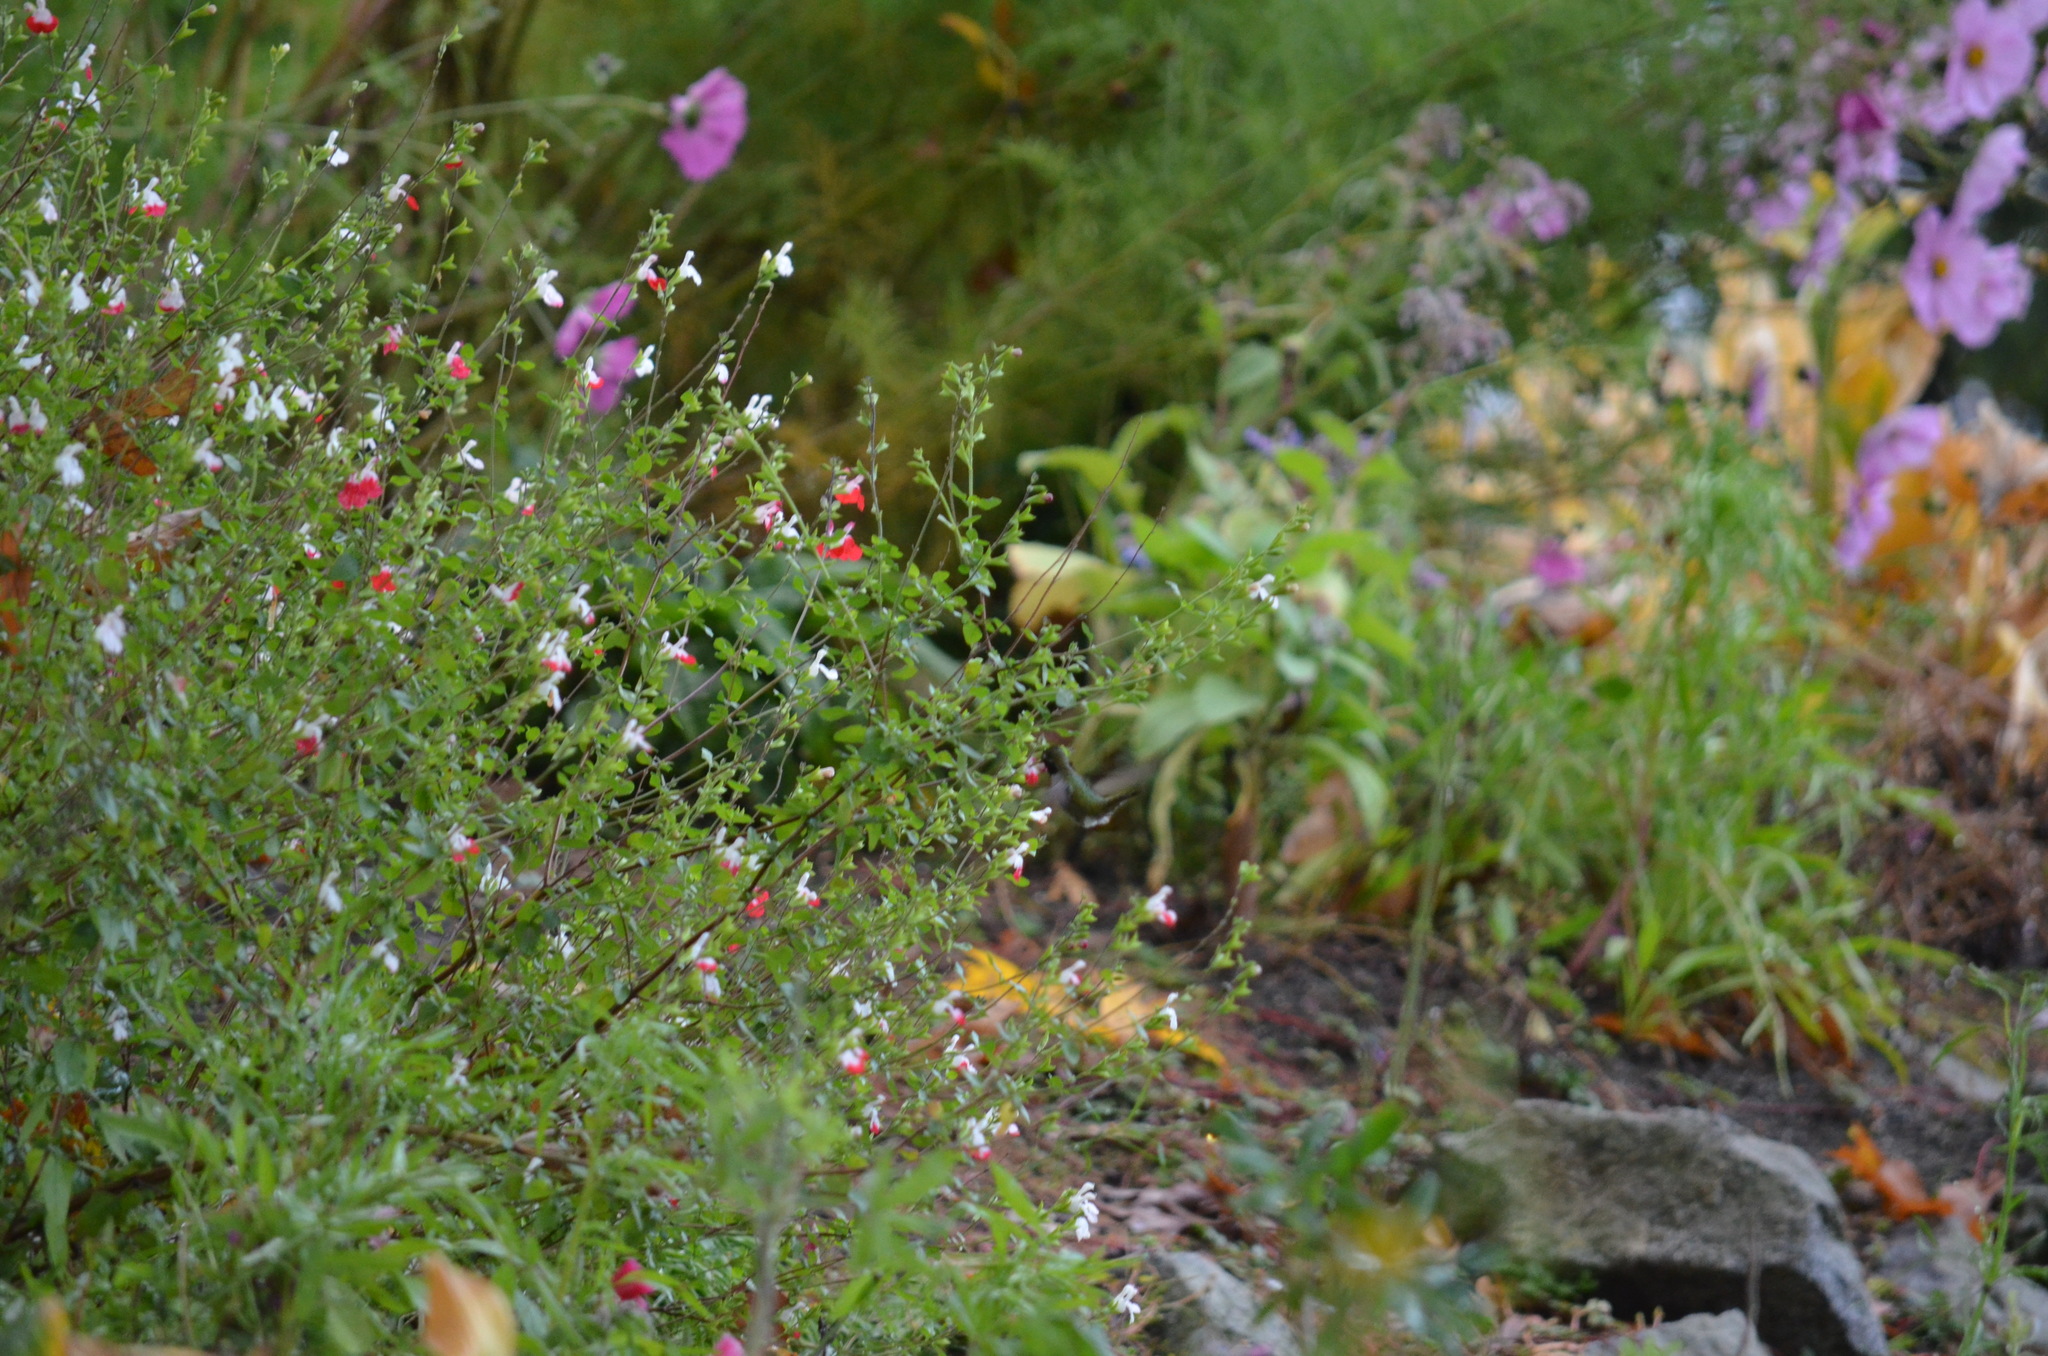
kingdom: Animalia
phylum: Chordata
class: Aves
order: Apodiformes
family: Trochilidae
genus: Calypte
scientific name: Calypte anna
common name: Anna's hummingbird
